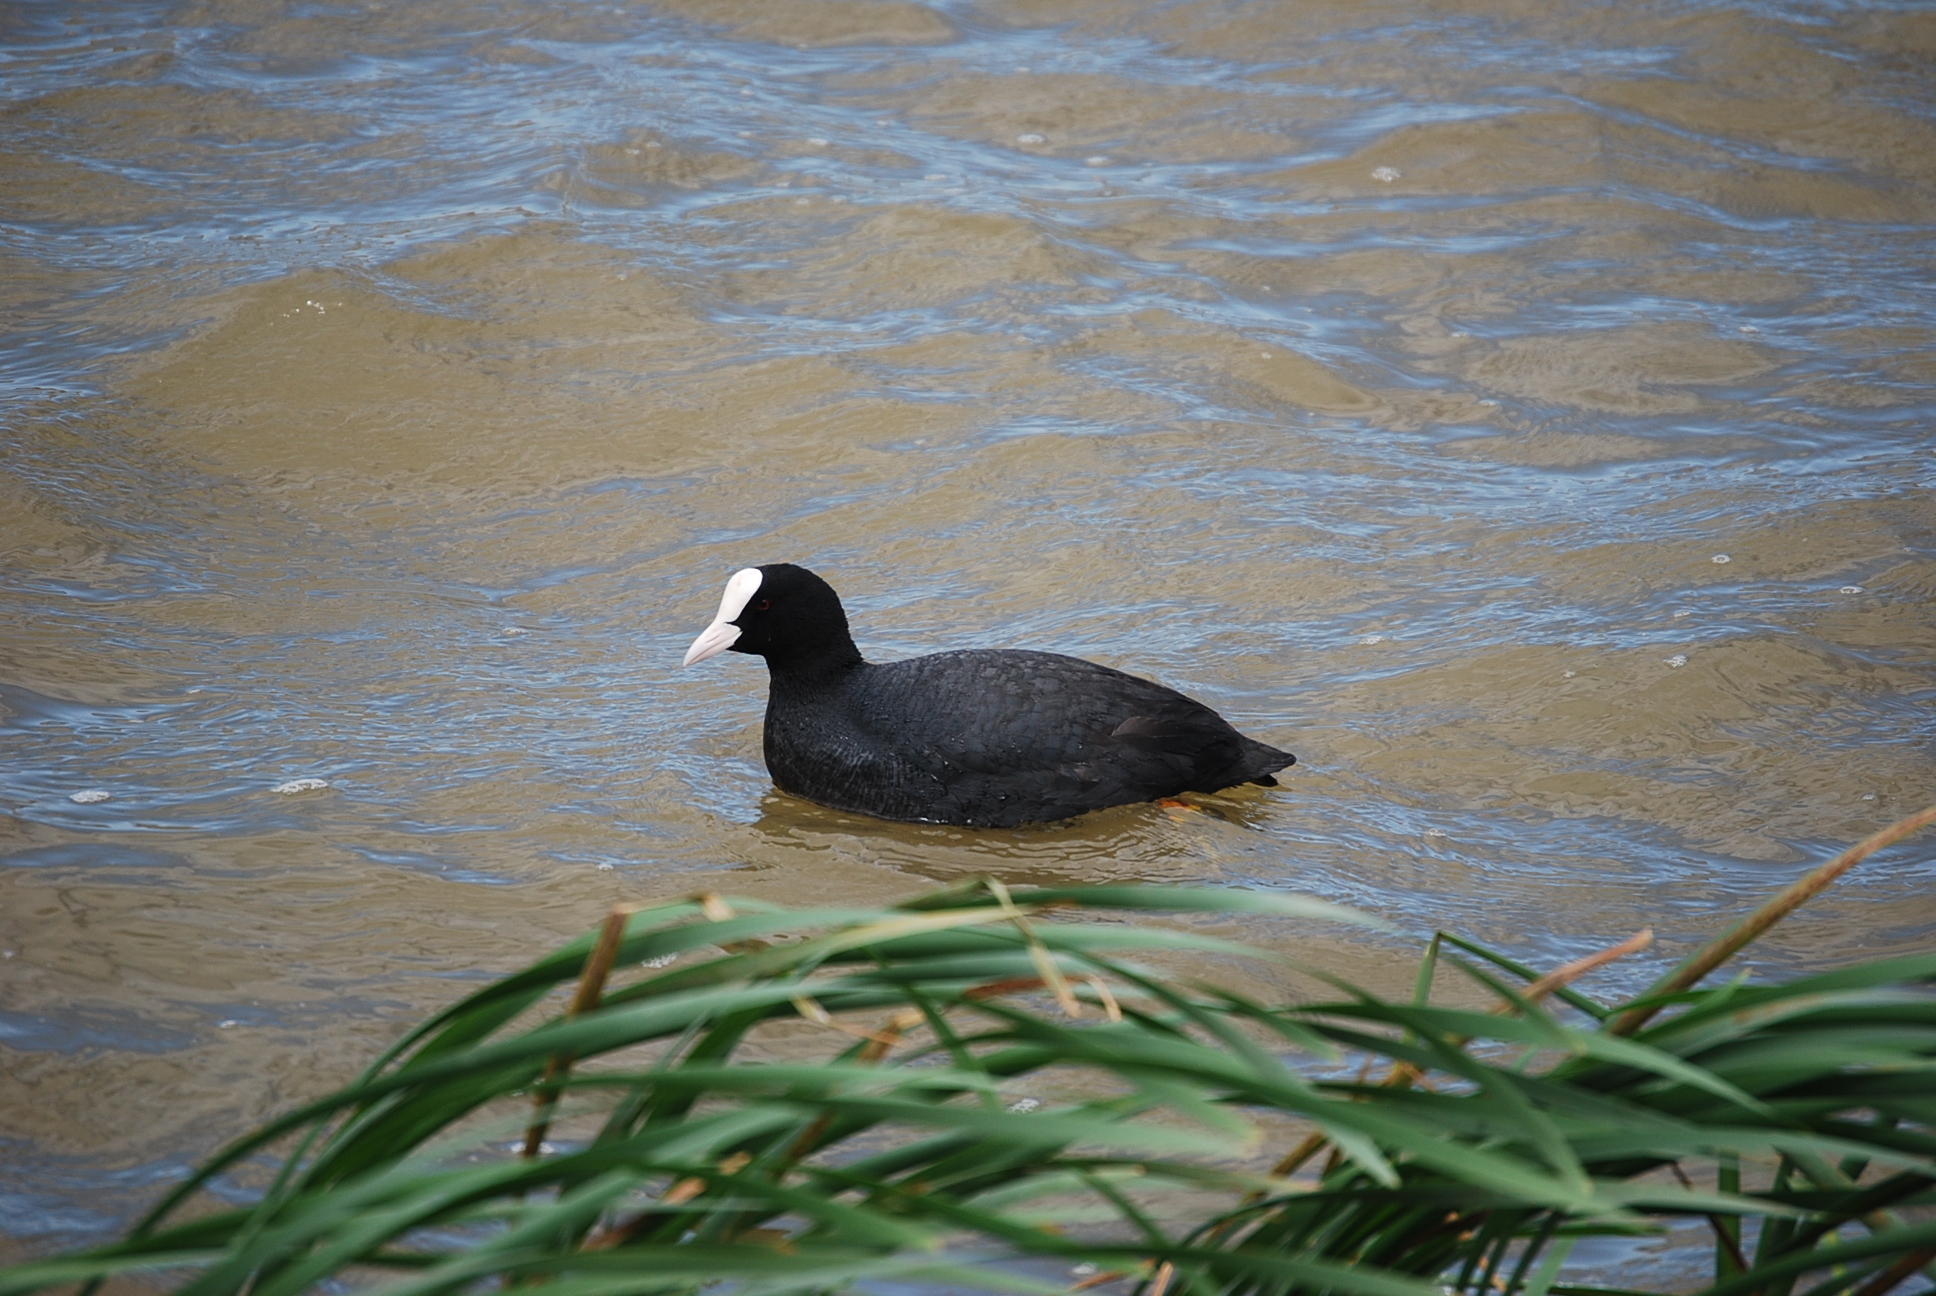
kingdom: Animalia
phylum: Chordata
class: Aves
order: Gruiformes
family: Rallidae
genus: Fulica
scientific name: Fulica atra
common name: Eurasian coot
